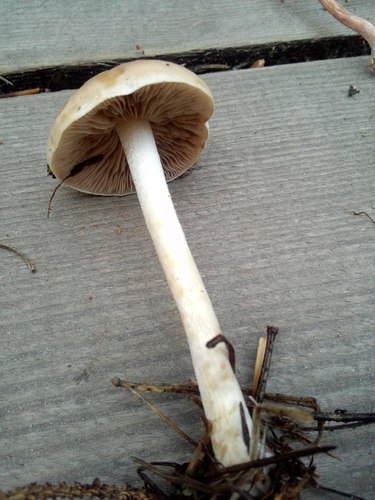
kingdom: Fungi
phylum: Basidiomycota
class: Agaricomycetes
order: Agaricales
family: Hymenogastraceae
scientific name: Hymenogastraceae
